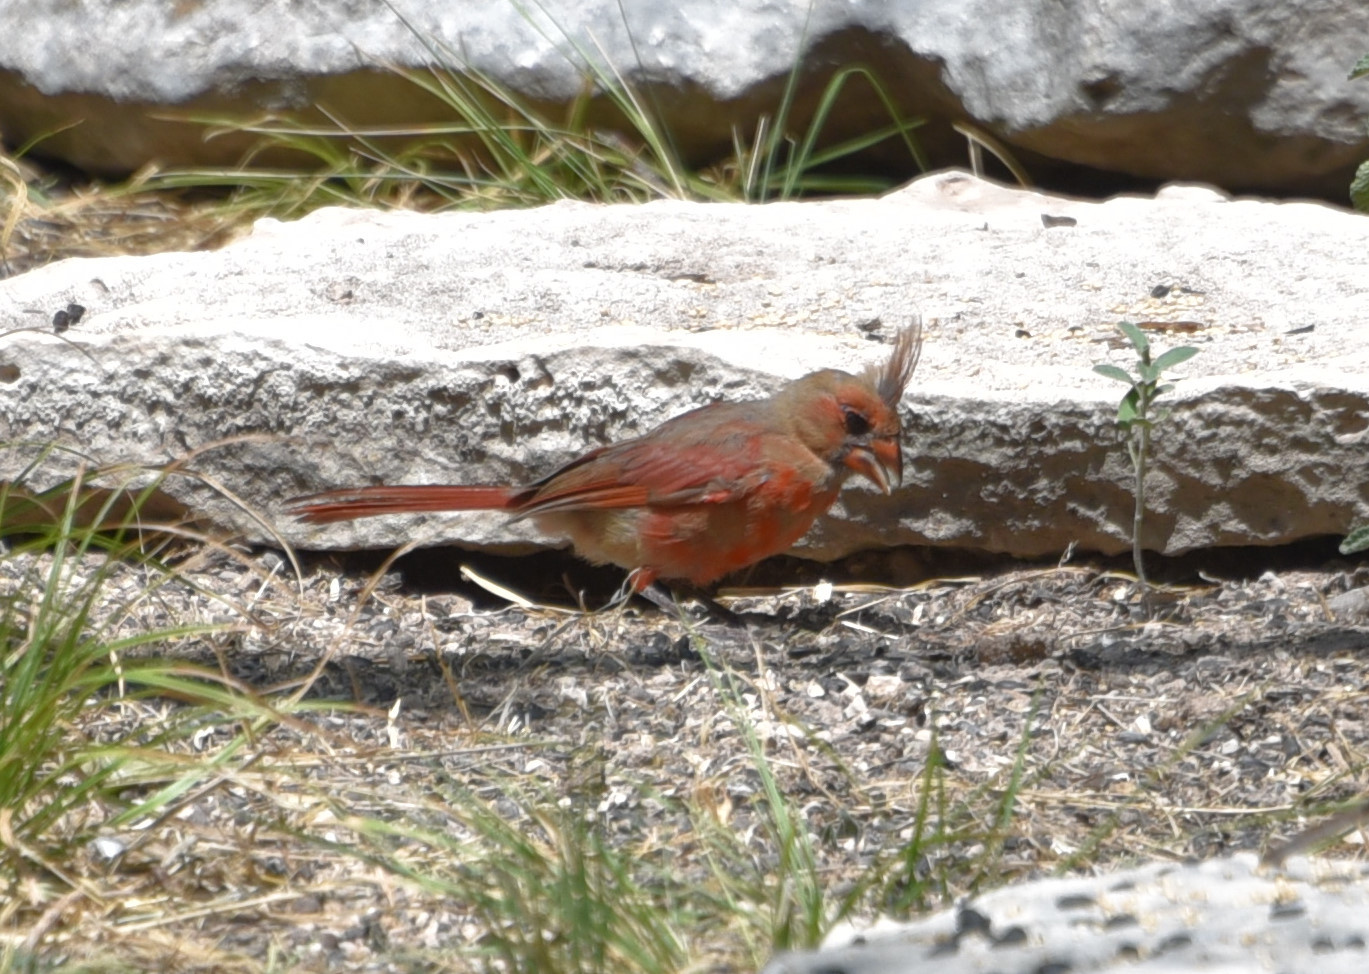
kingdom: Animalia
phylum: Chordata
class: Aves
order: Passeriformes
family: Cardinalidae
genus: Cardinalis
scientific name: Cardinalis cardinalis
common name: Northern cardinal
